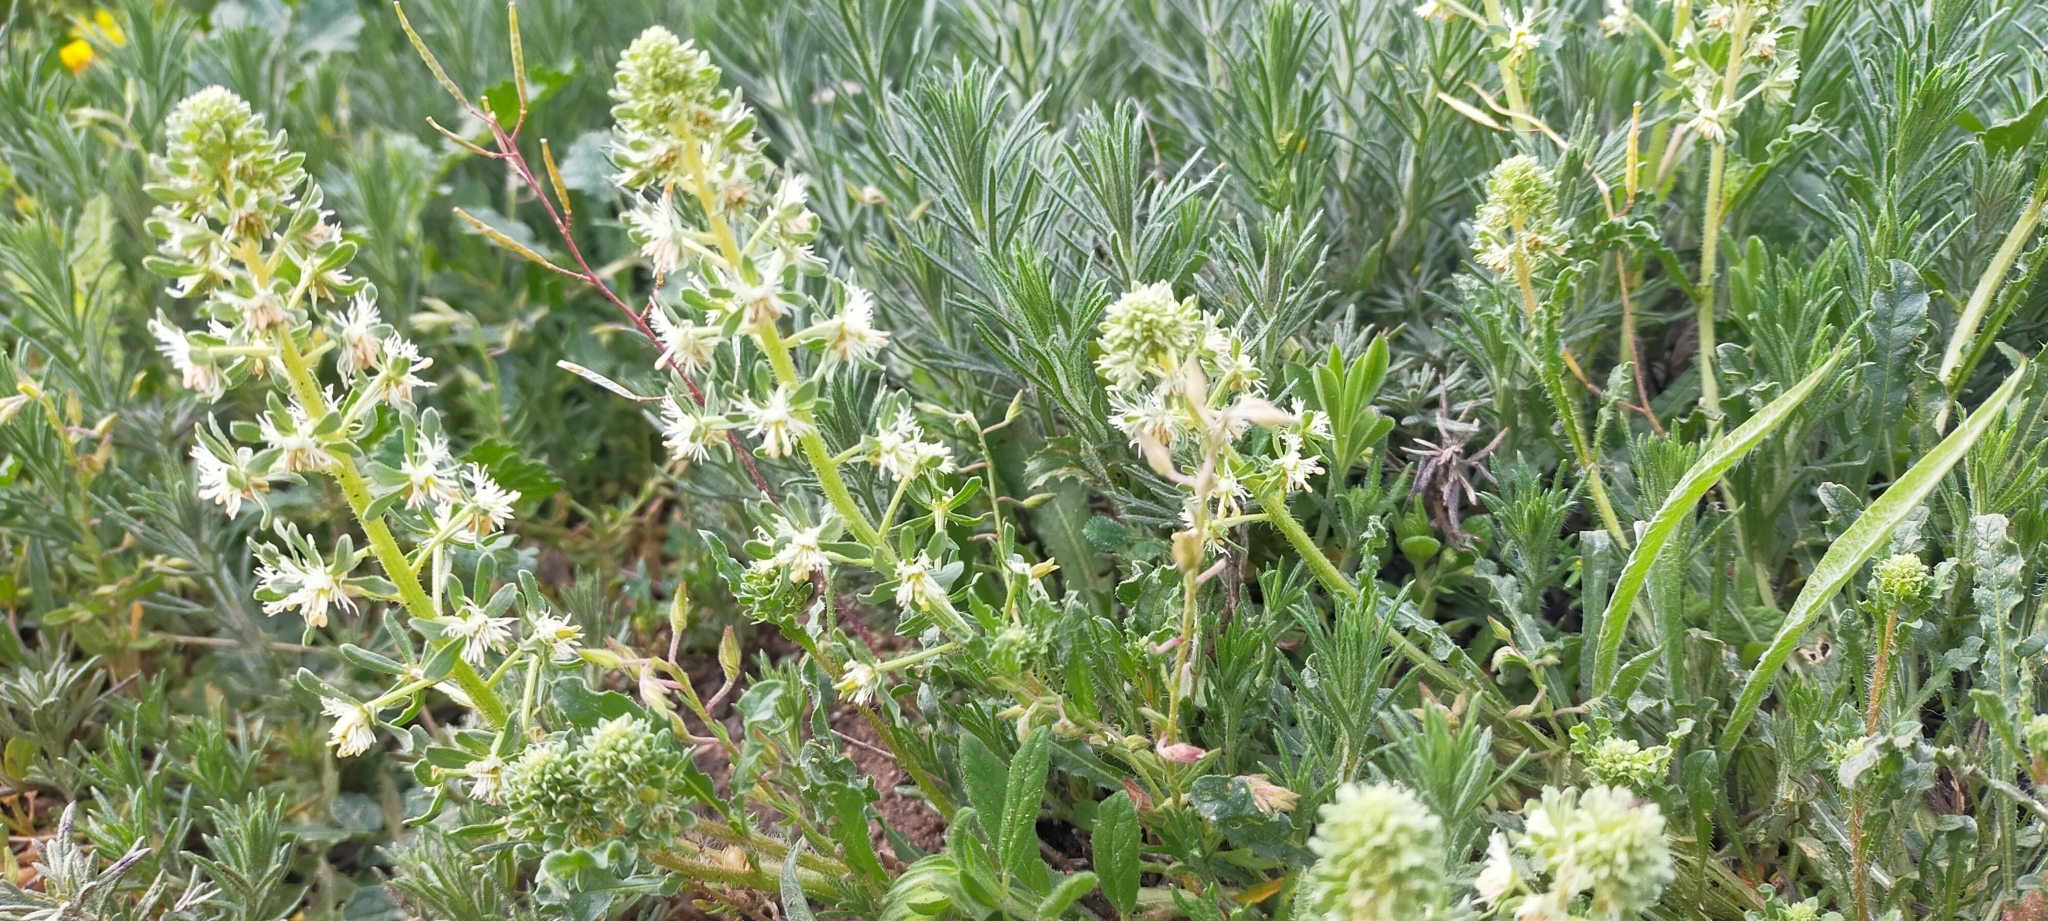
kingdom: Plantae
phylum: Tracheophyta
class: Magnoliopsida
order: Brassicales
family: Resedaceae
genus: Reseda
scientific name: Reseda phyteuma
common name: Corn mignonette
